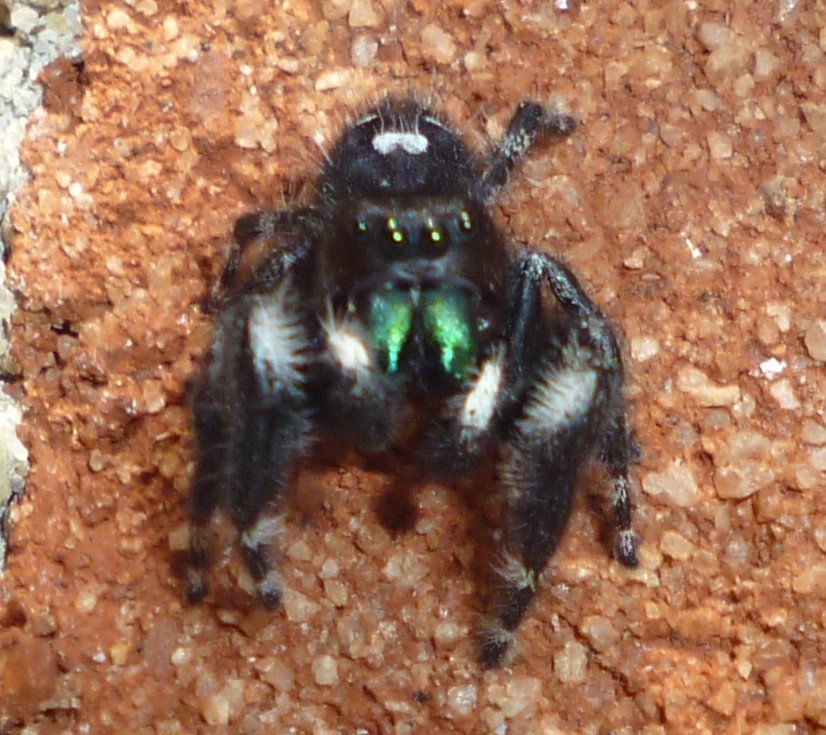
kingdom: Animalia
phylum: Arthropoda
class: Arachnida
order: Araneae
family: Salticidae
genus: Phidippus
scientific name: Phidippus audax
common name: Bold jumper
